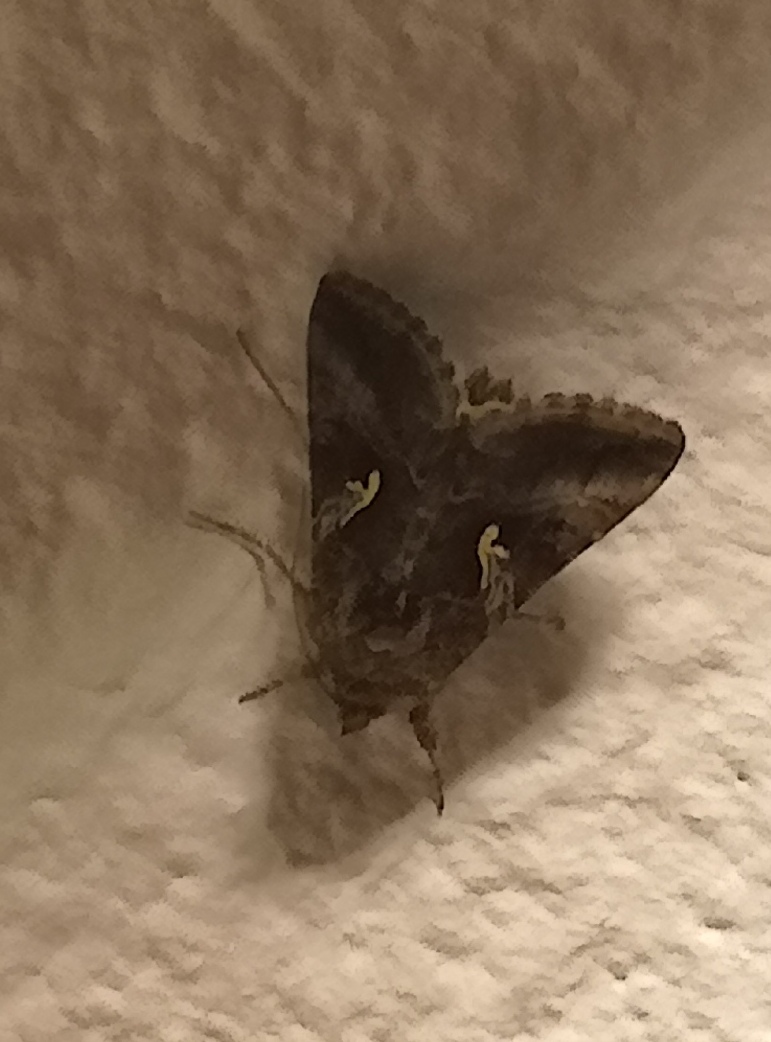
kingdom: Animalia
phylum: Arthropoda
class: Insecta
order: Lepidoptera
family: Noctuidae
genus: Autographa
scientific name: Autographa gamma
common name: Silver y
